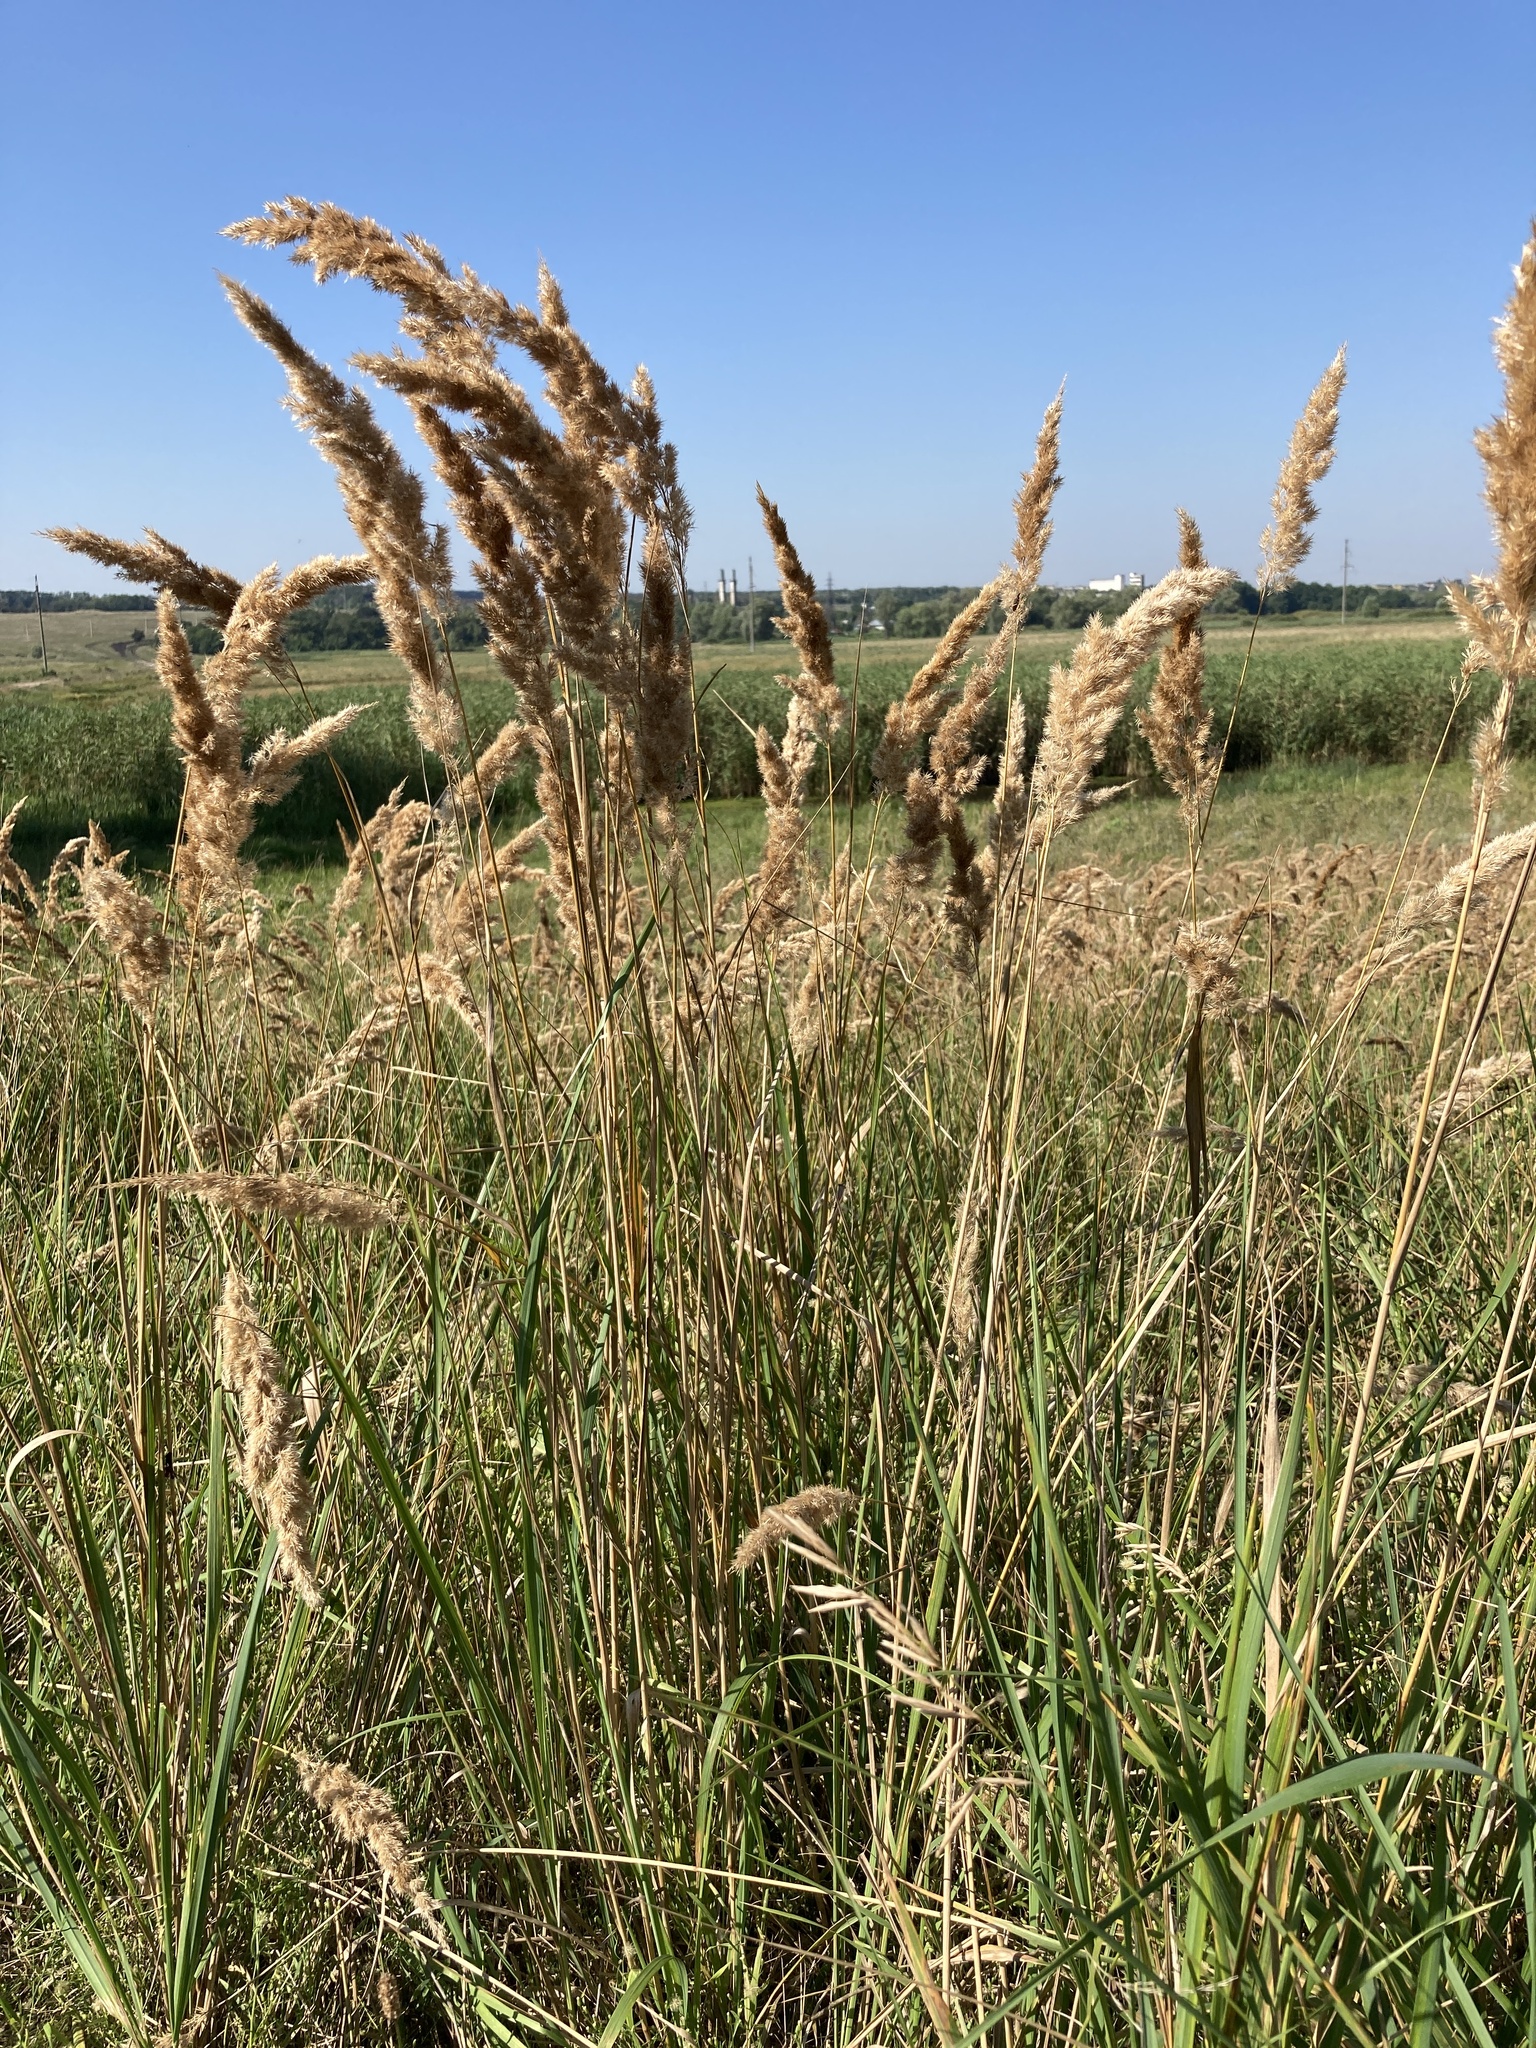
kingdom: Plantae
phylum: Tracheophyta
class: Liliopsida
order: Poales
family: Poaceae
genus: Calamagrostis
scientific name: Calamagrostis epigejos
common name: Wood small-reed
